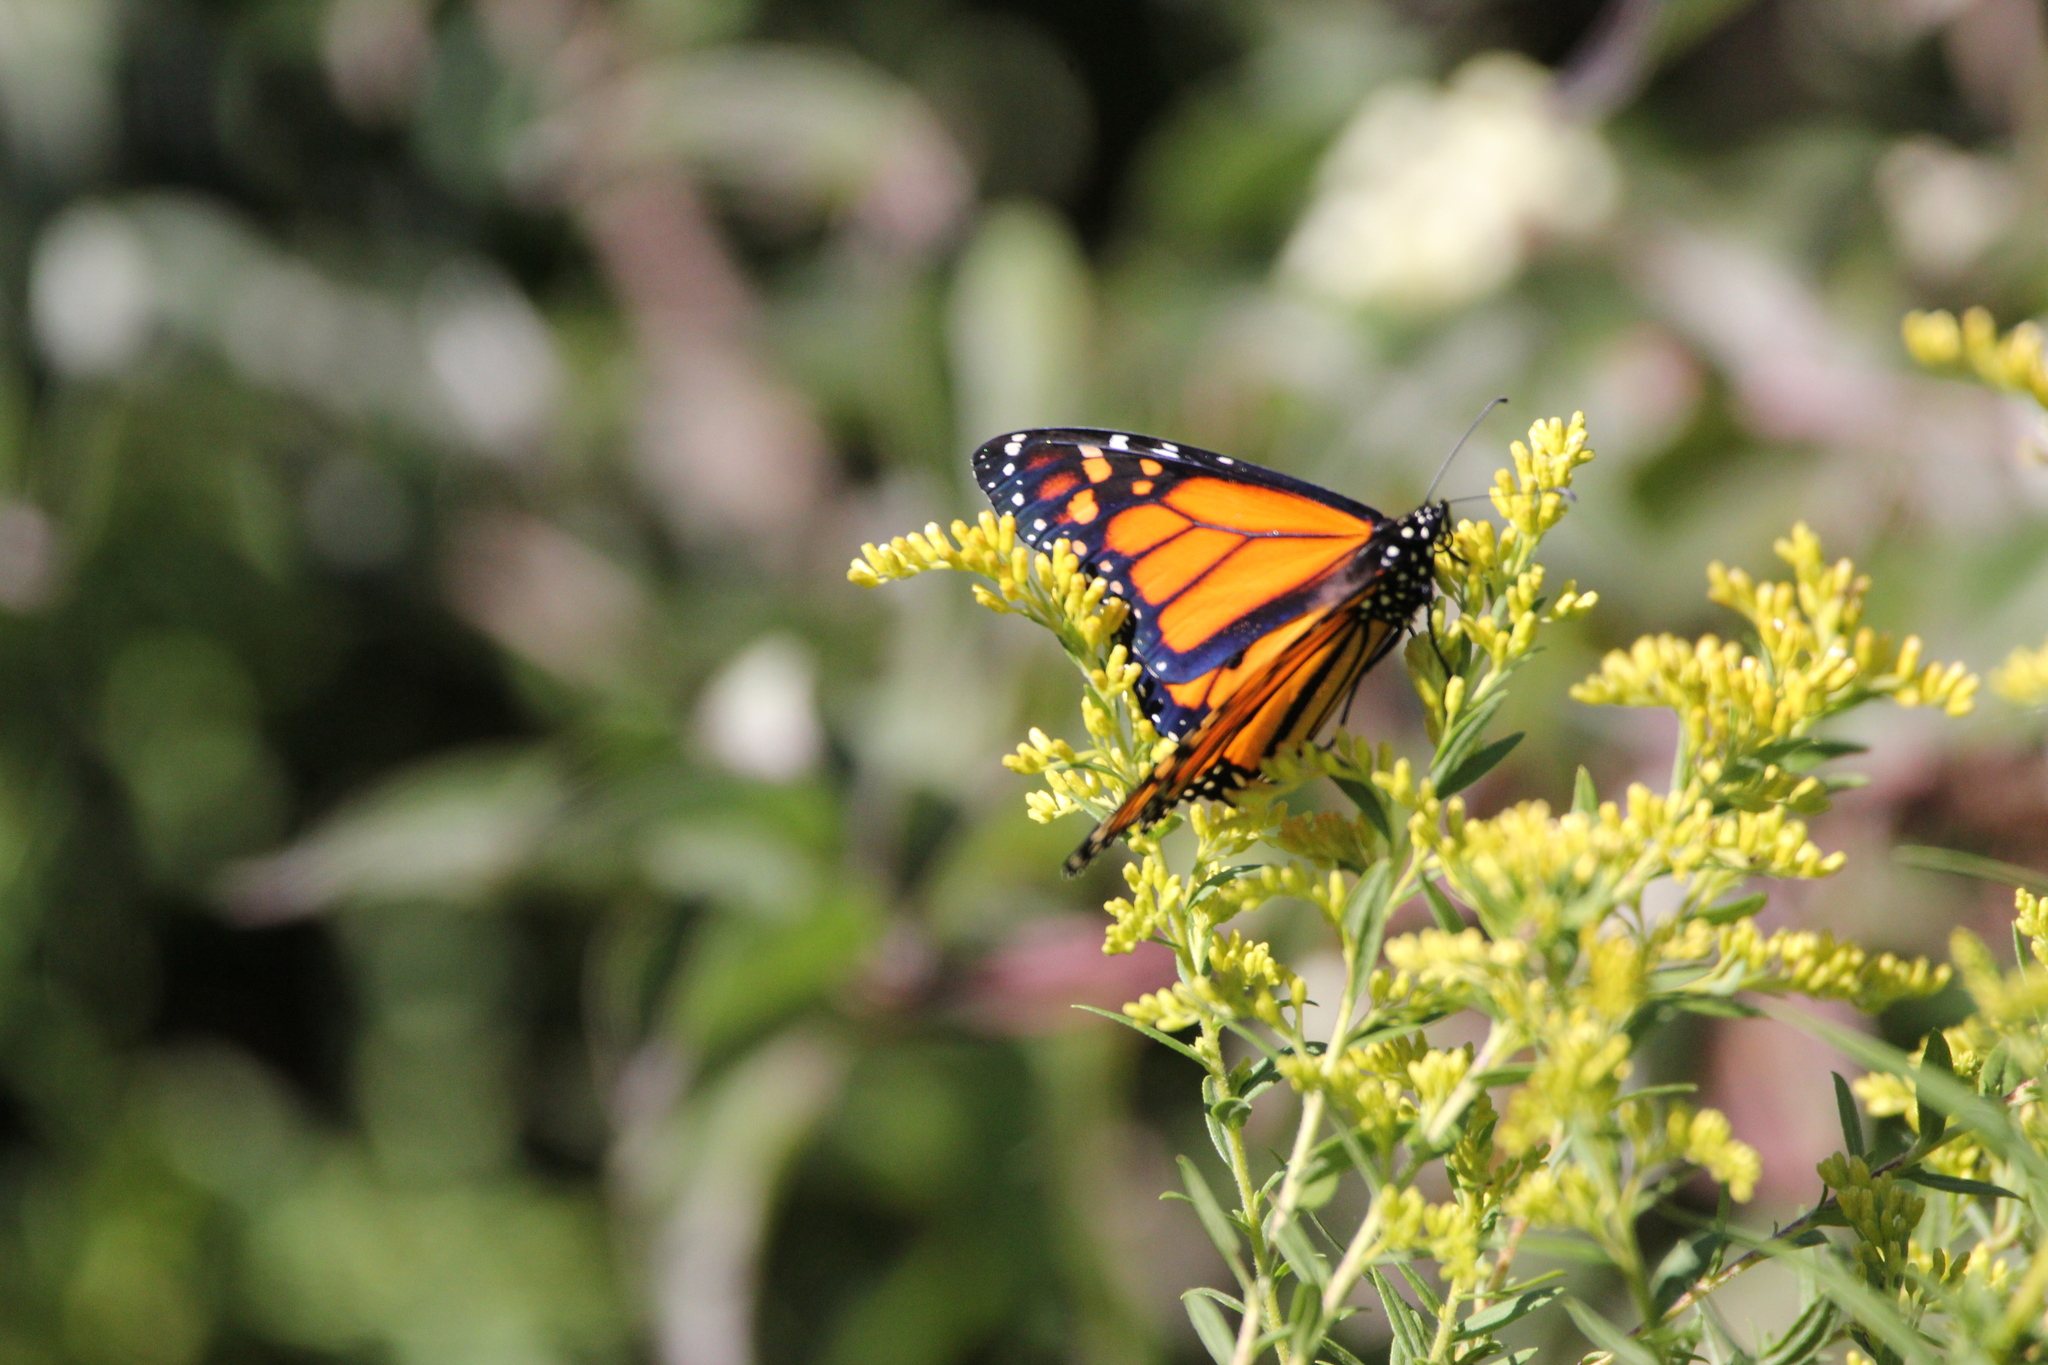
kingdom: Animalia
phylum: Arthropoda
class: Insecta
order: Lepidoptera
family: Nymphalidae
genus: Danaus
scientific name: Danaus plexippus
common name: Monarch
